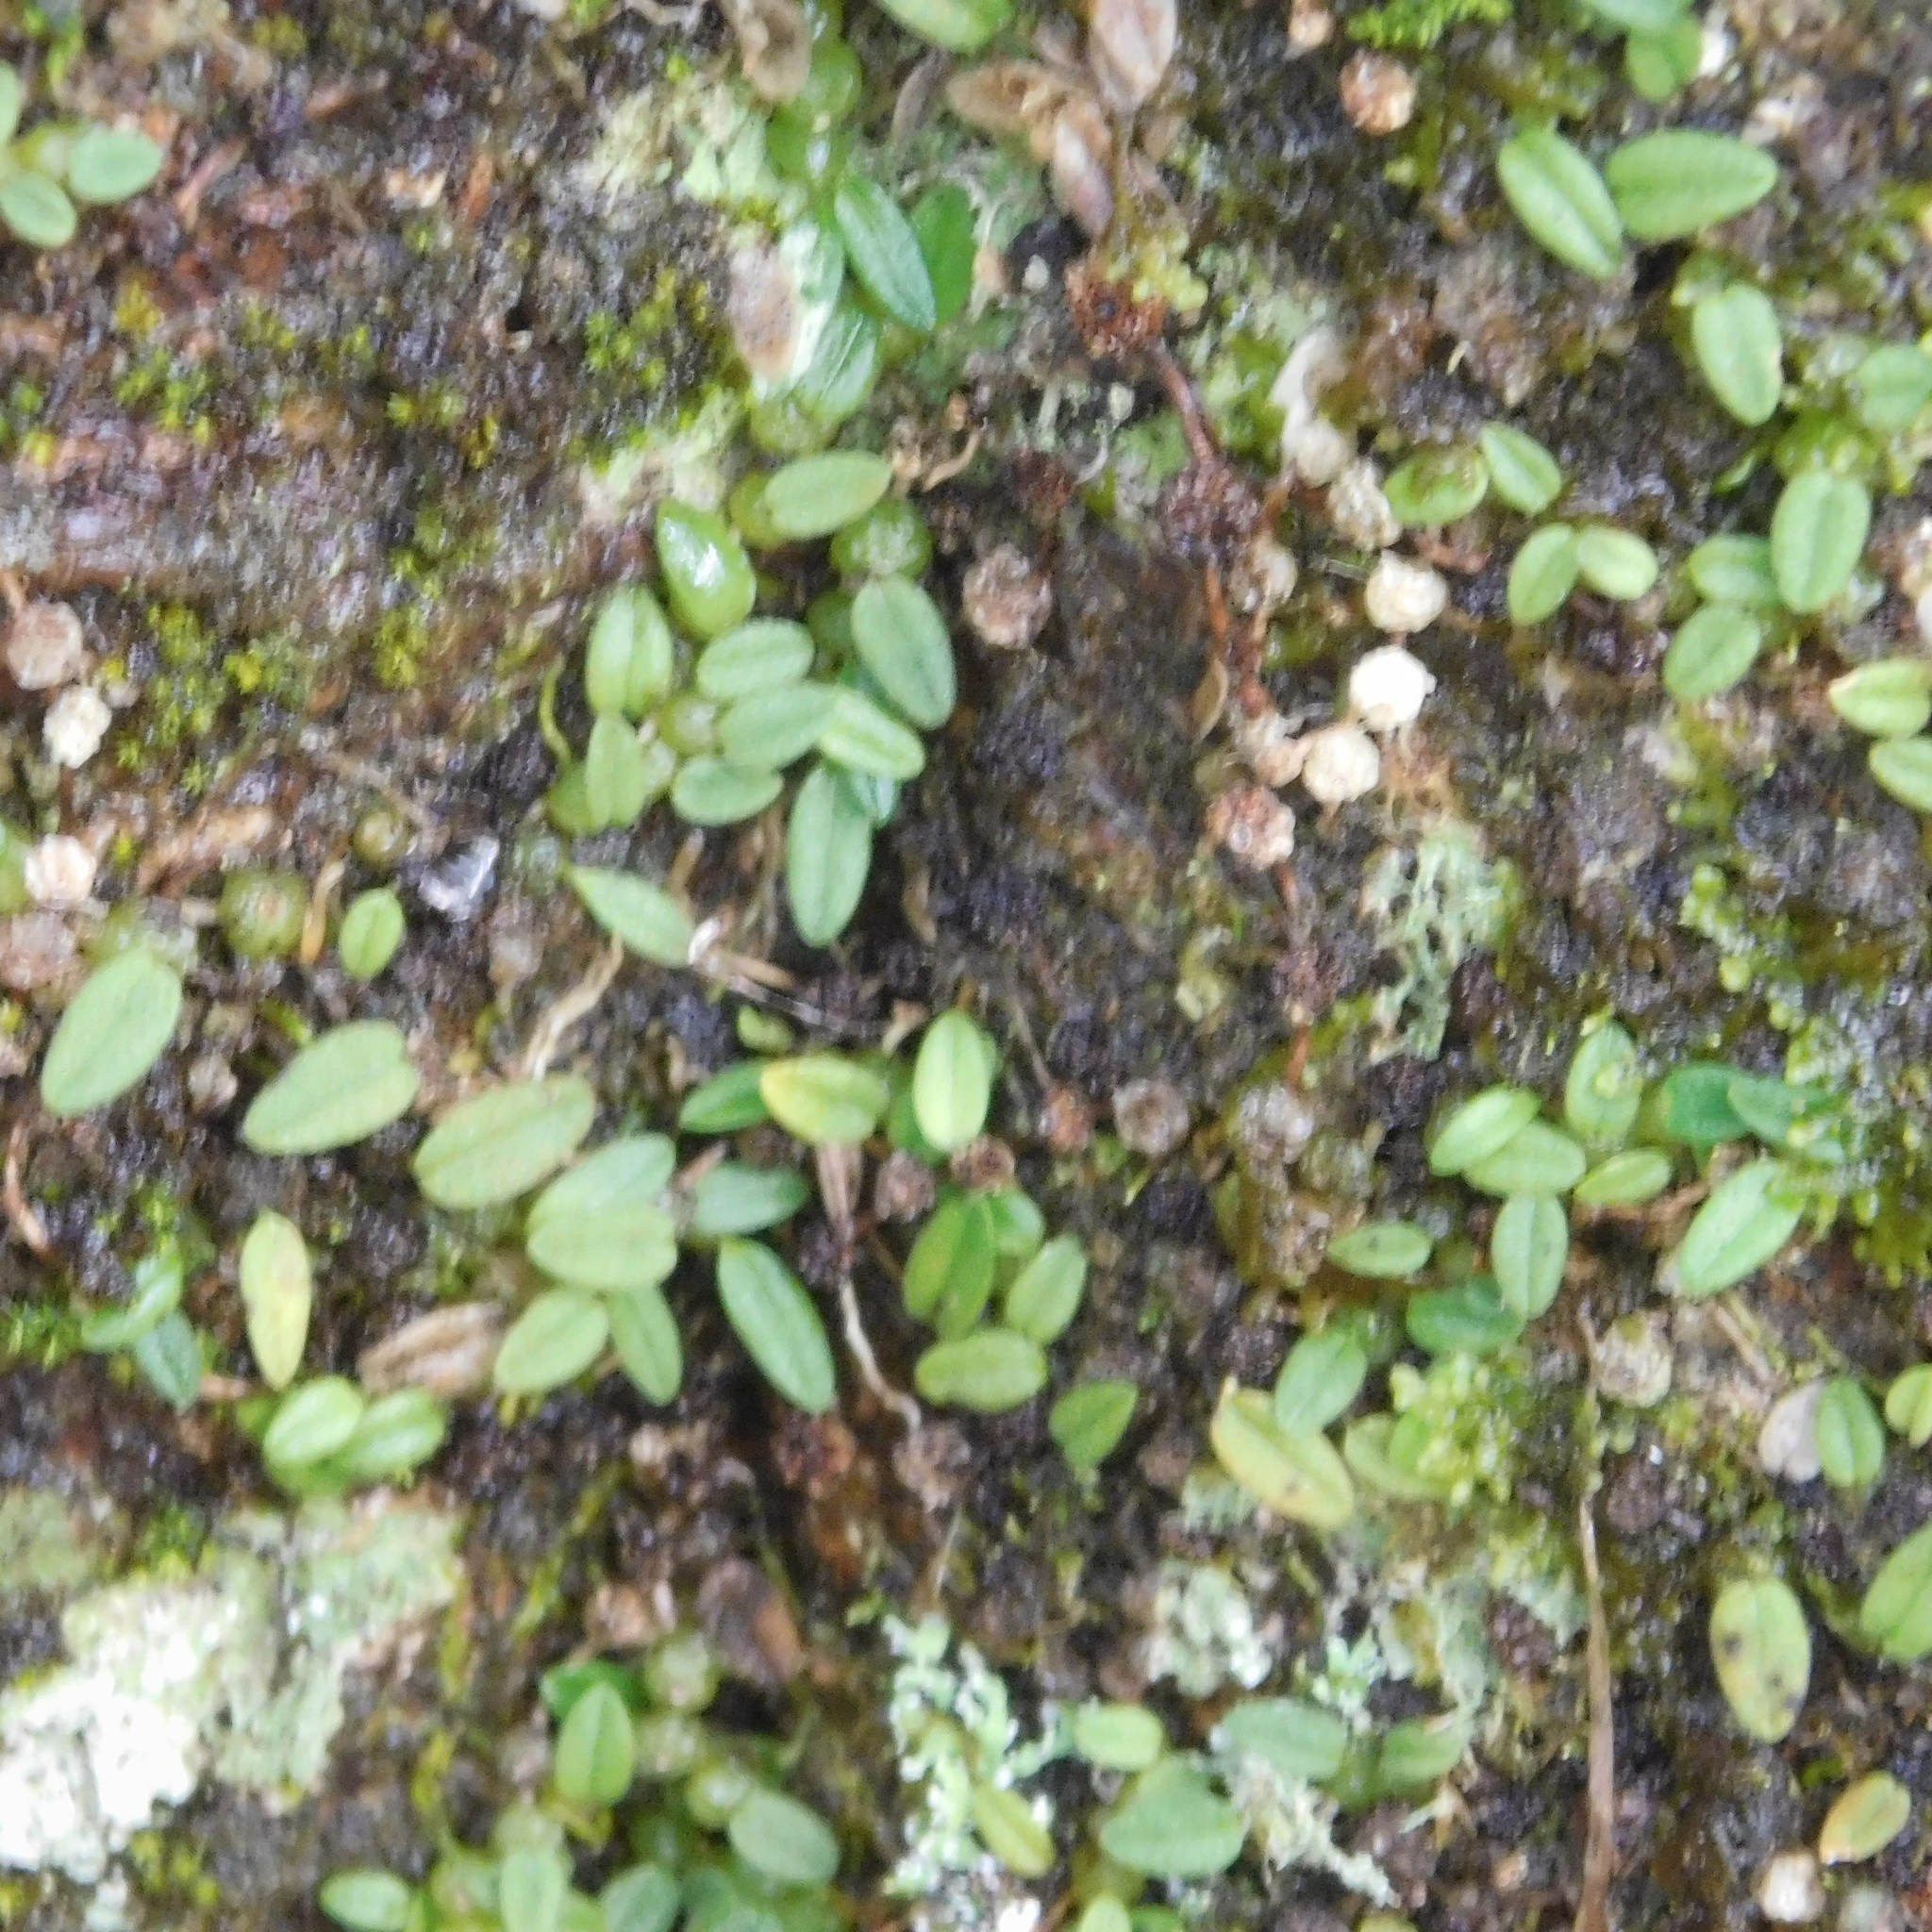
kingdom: Plantae
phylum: Tracheophyta
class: Liliopsida
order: Asparagales
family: Orchidaceae
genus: Bulbophyllum
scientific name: Bulbophyllum pygmaeum
